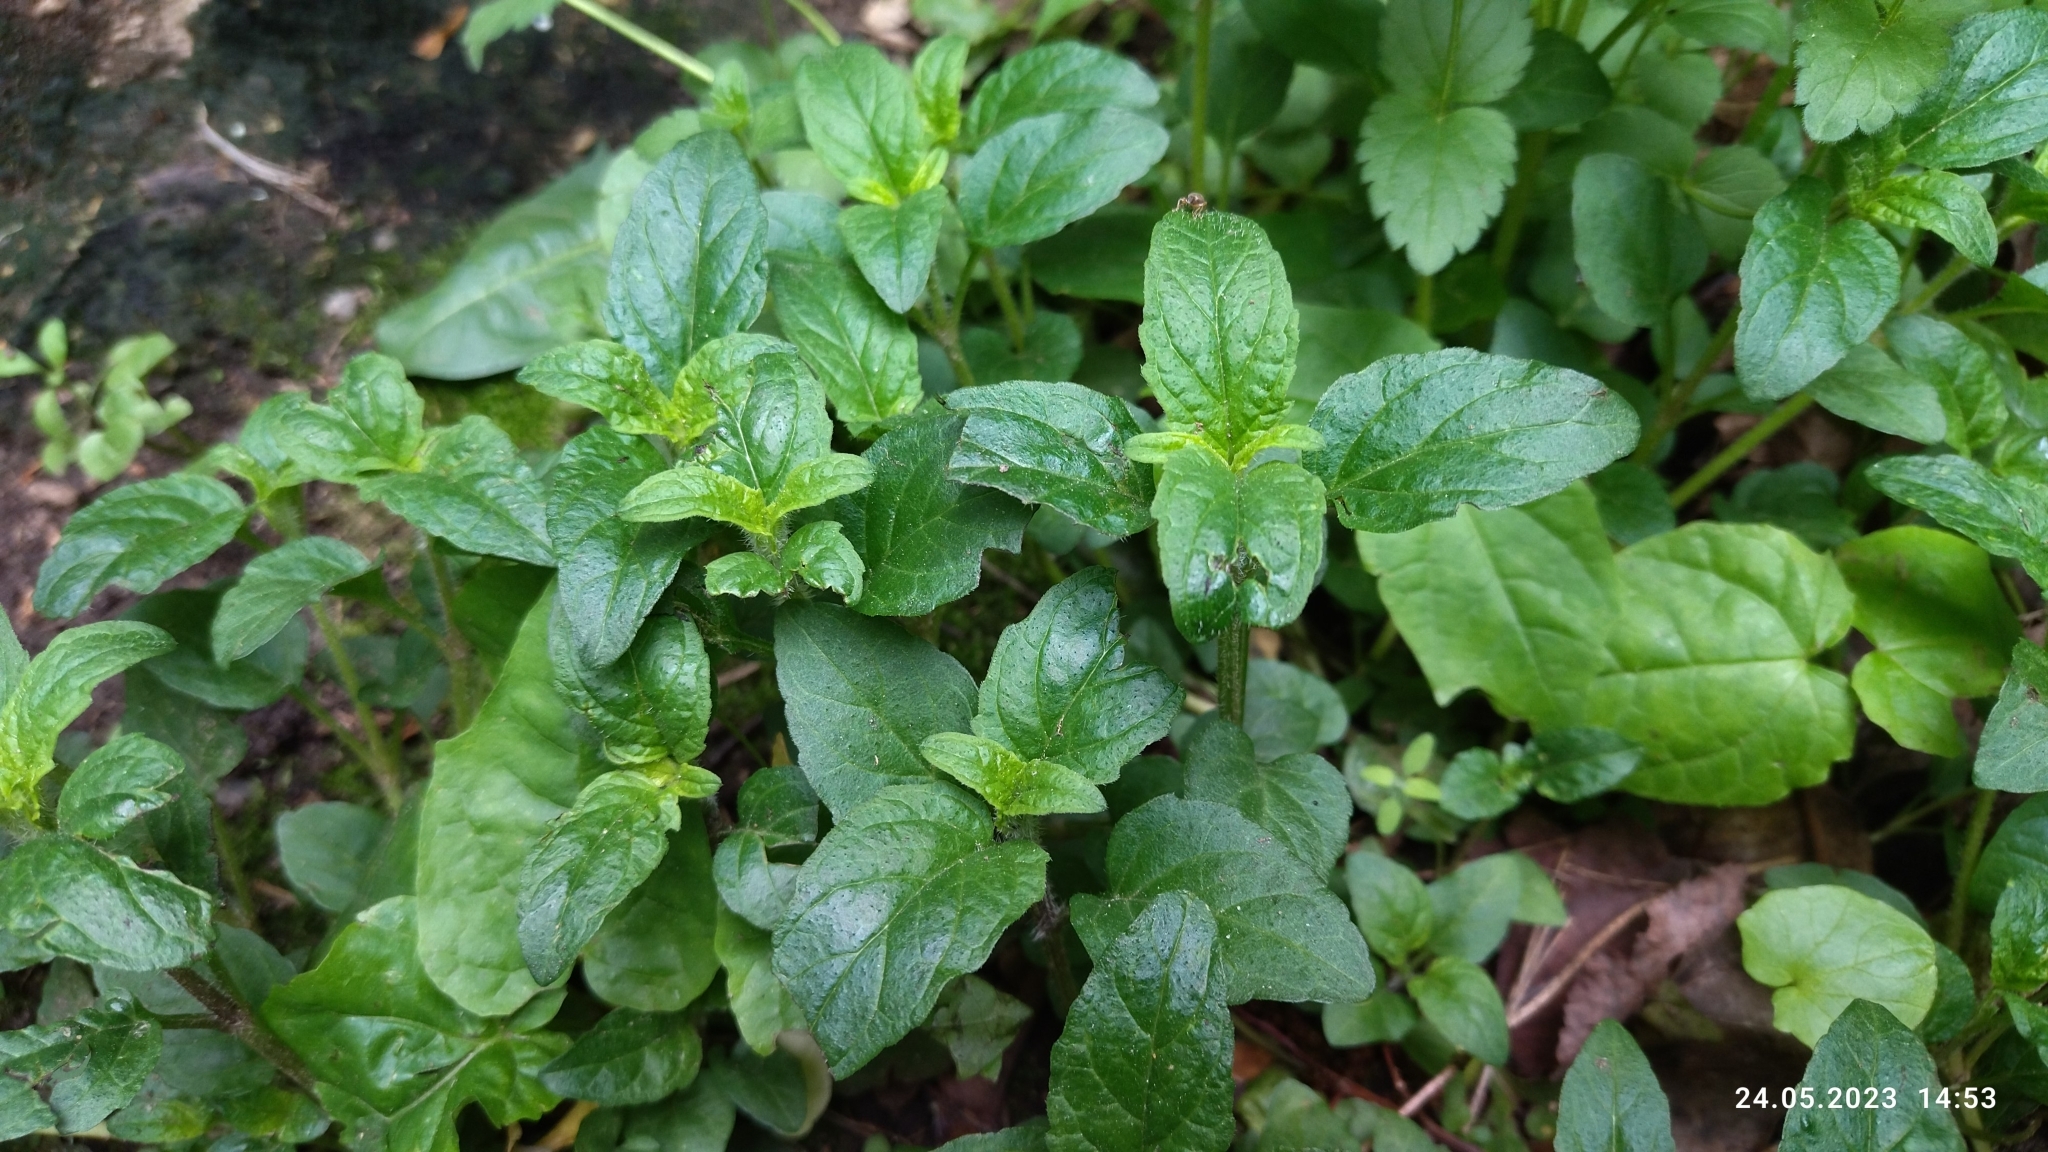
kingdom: Plantae
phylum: Tracheophyta
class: Magnoliopsida
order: Lamiales
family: Lamiaceae
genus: Prunella
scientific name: Prunella vulgaris
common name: Heal-all
